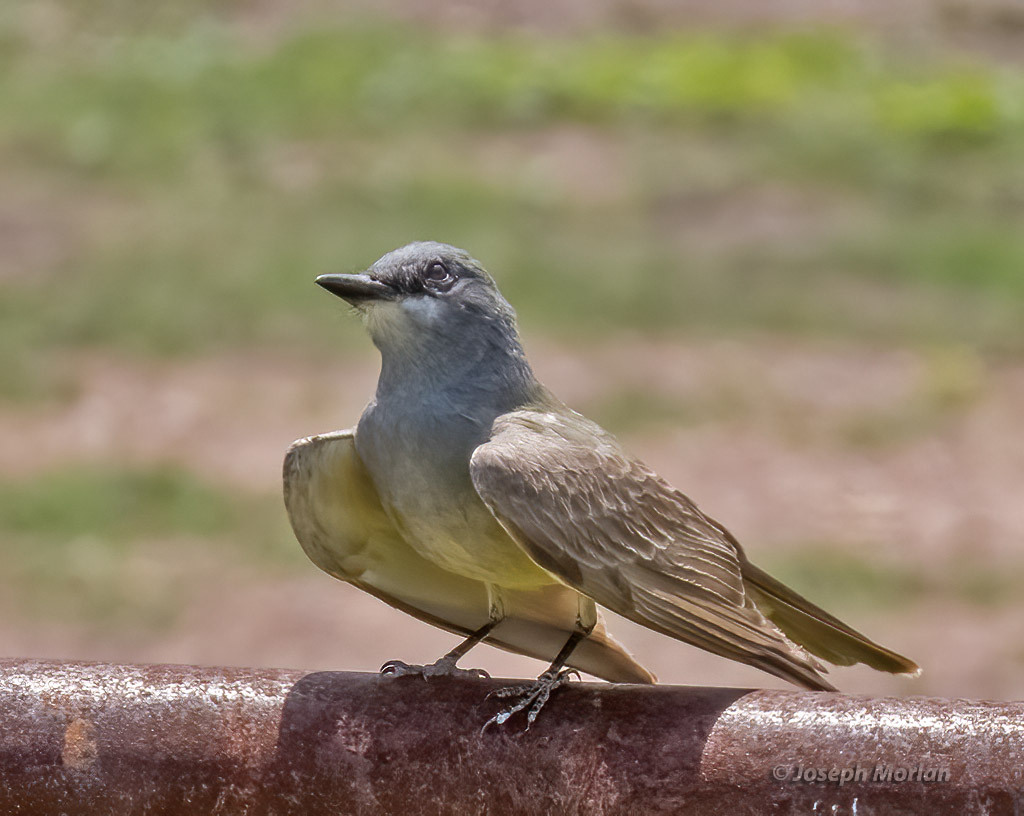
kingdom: Animalia
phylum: Chordata
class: Aves
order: Passeriformes
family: Tyrannidae
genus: Tyrannus
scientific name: Tyrannus vociferans
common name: Cassin's kingbird
